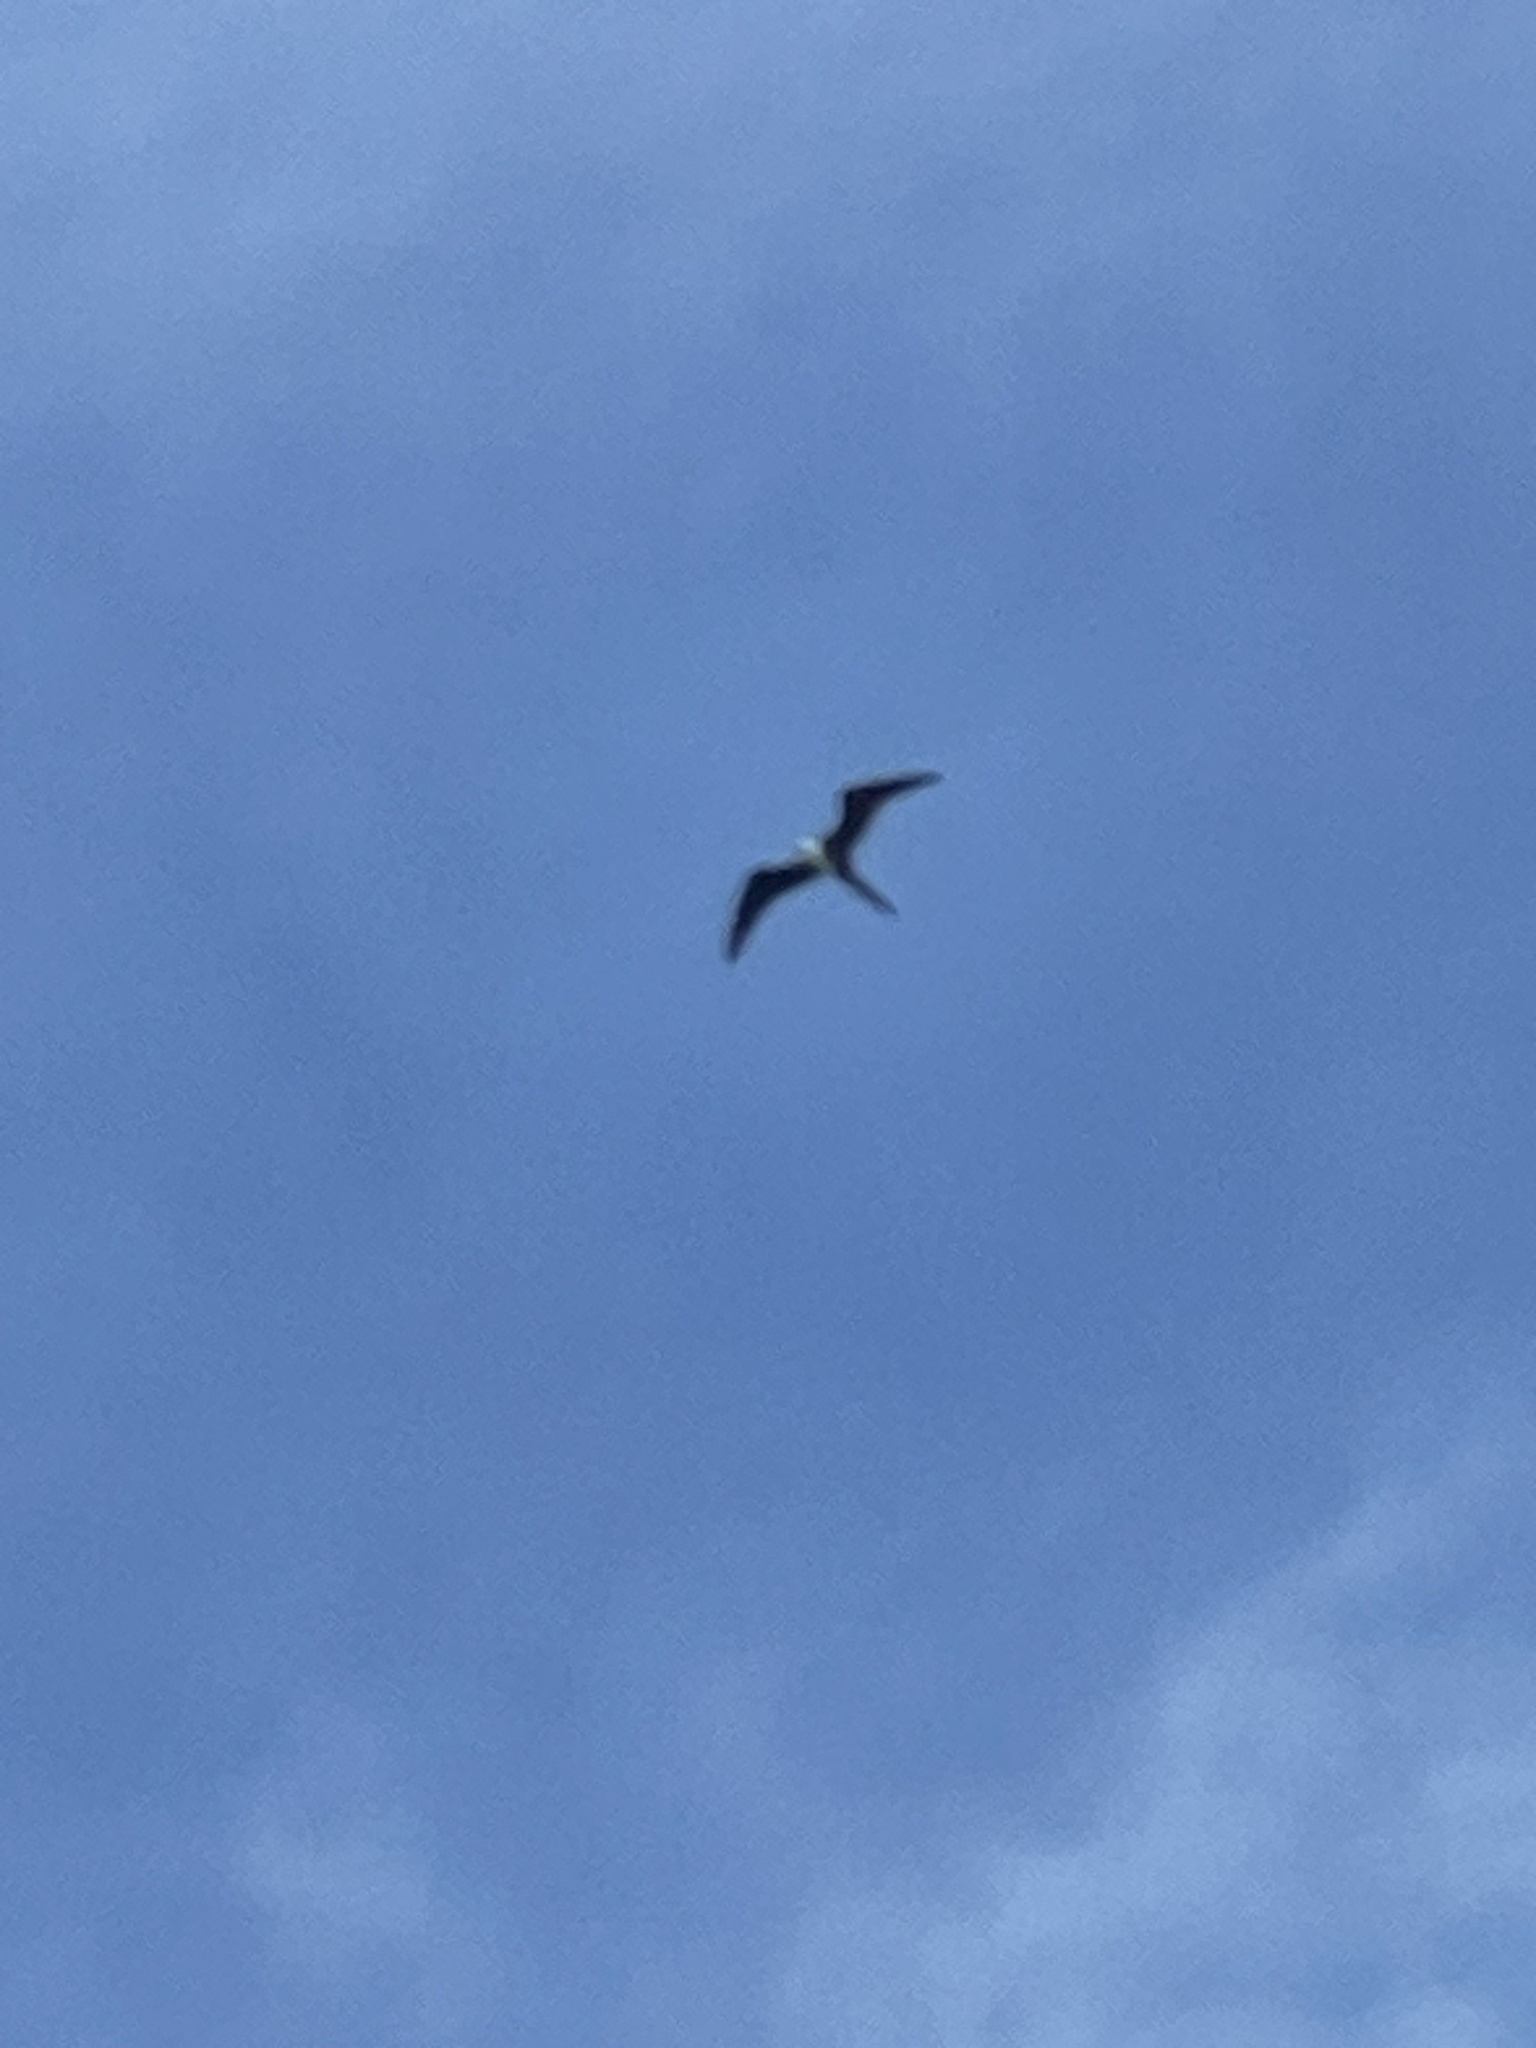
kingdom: Animalia
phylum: Chordata
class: Aves
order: Suliformes
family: Fregatidae
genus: Fregata
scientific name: Fregata magnificens
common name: Magnificent frigatebird
